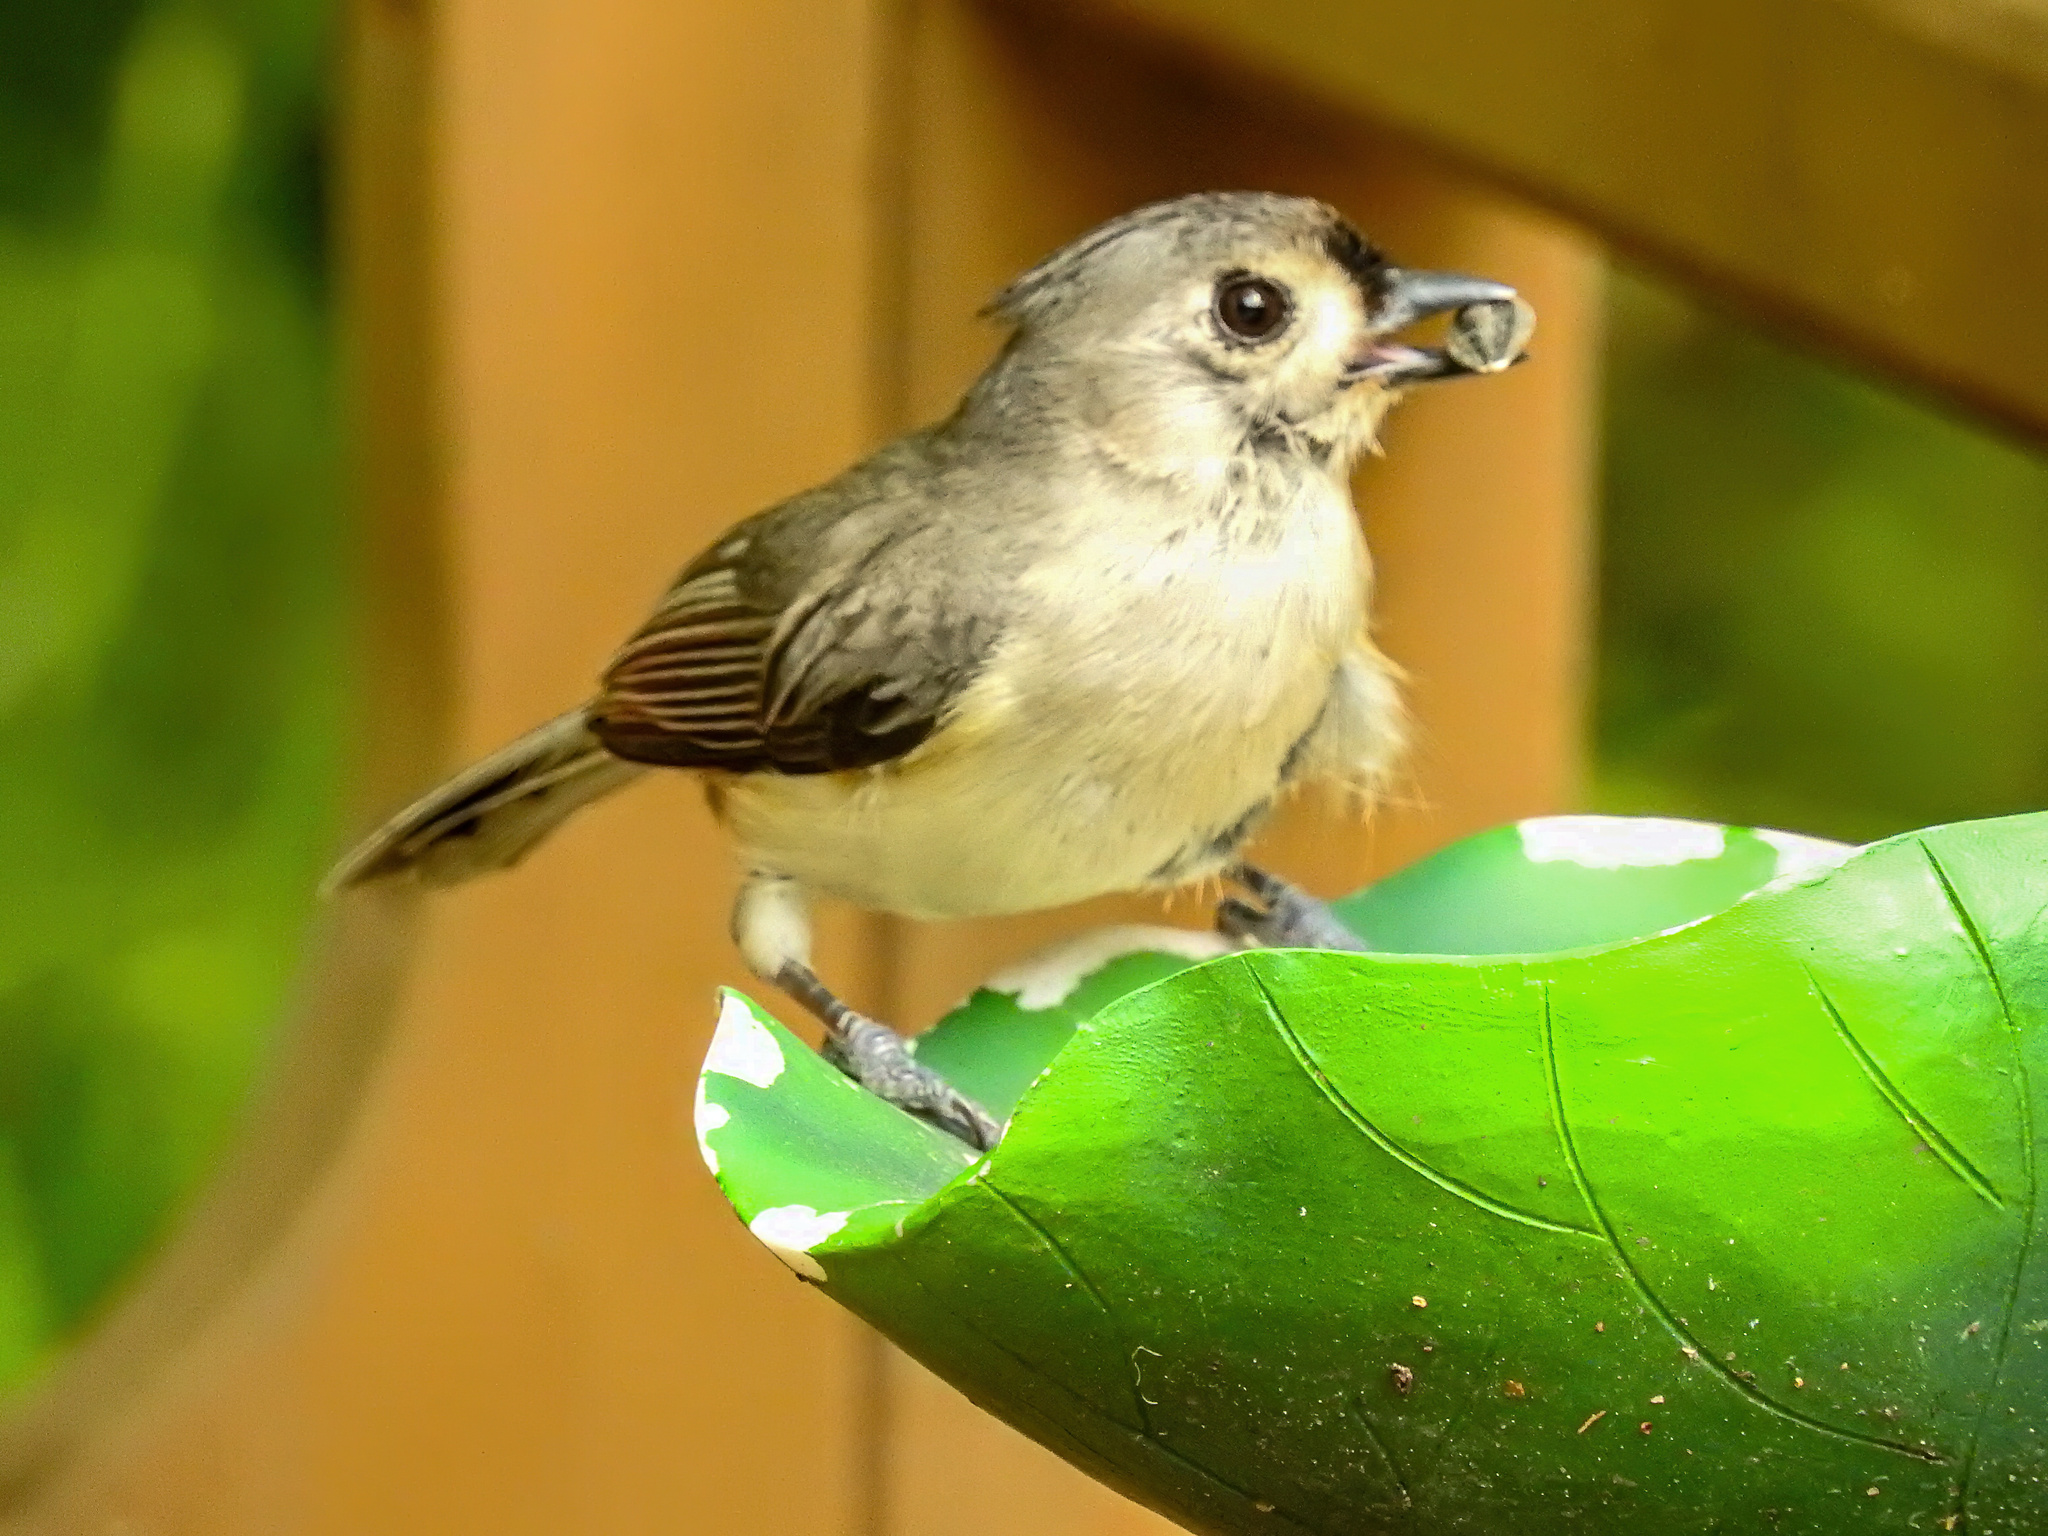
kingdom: Animalia
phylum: Chordata
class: Aves
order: Passeriformes
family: Paridae
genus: Baeolophus
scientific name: Baeolophus bicolor
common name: Tufted titmouse
